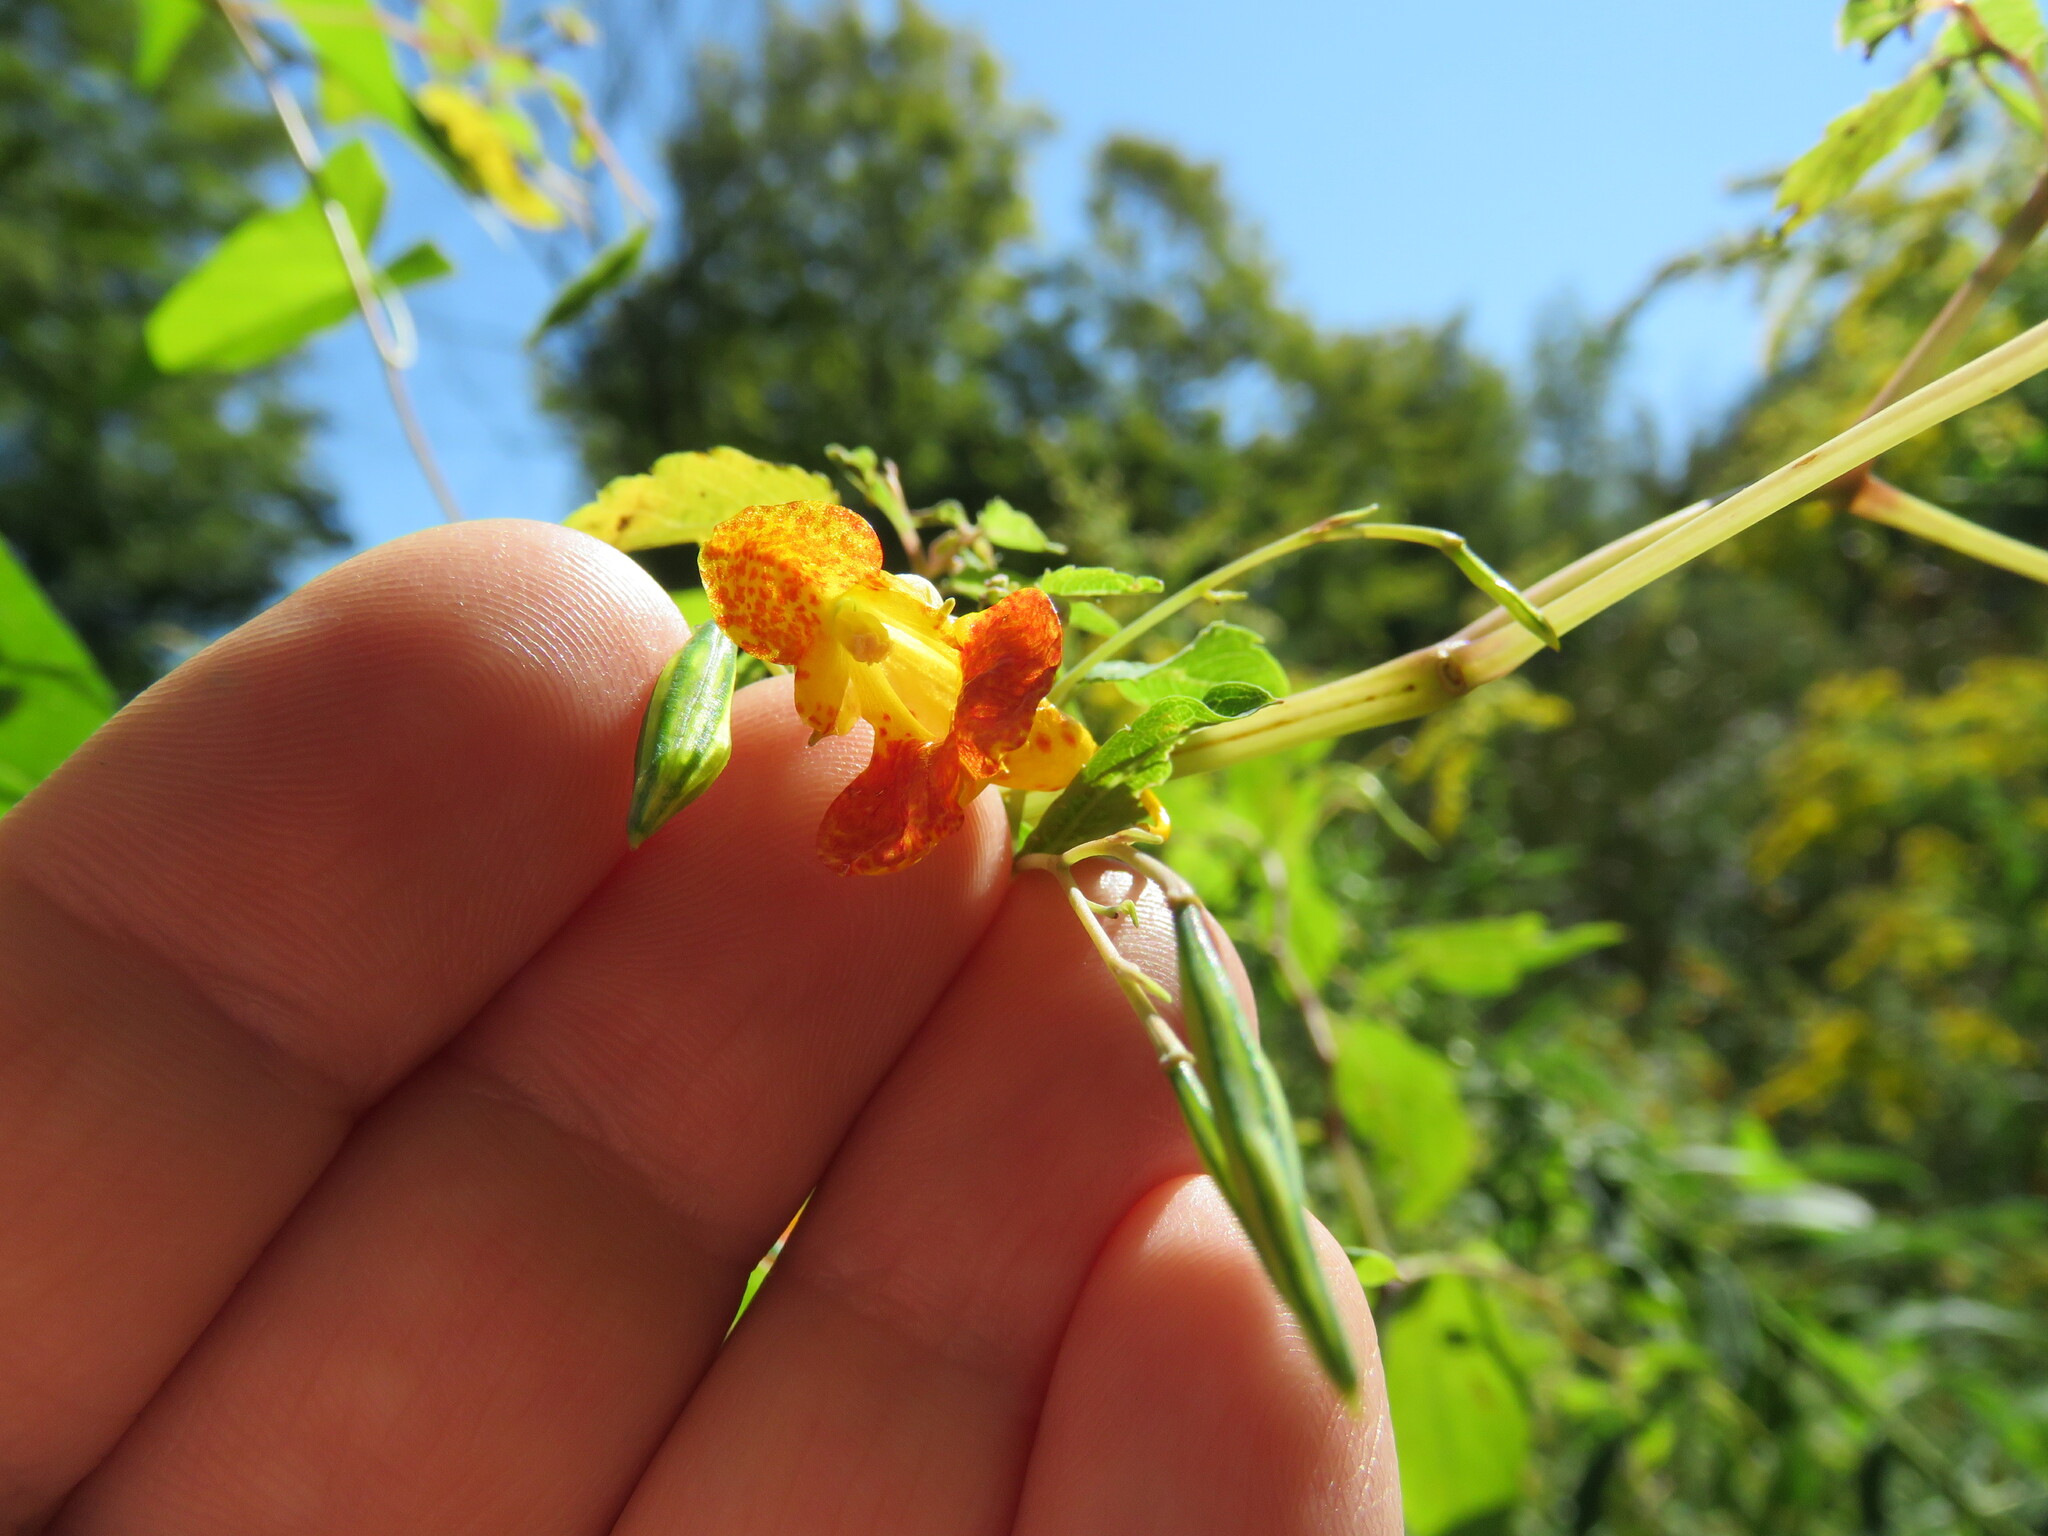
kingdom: Plantae
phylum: Tracheophyta
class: Magnoliopsida
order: Ericales
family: Balsaminaceae
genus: Impatiens
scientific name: Impatiens capensis
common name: Orange balsam
